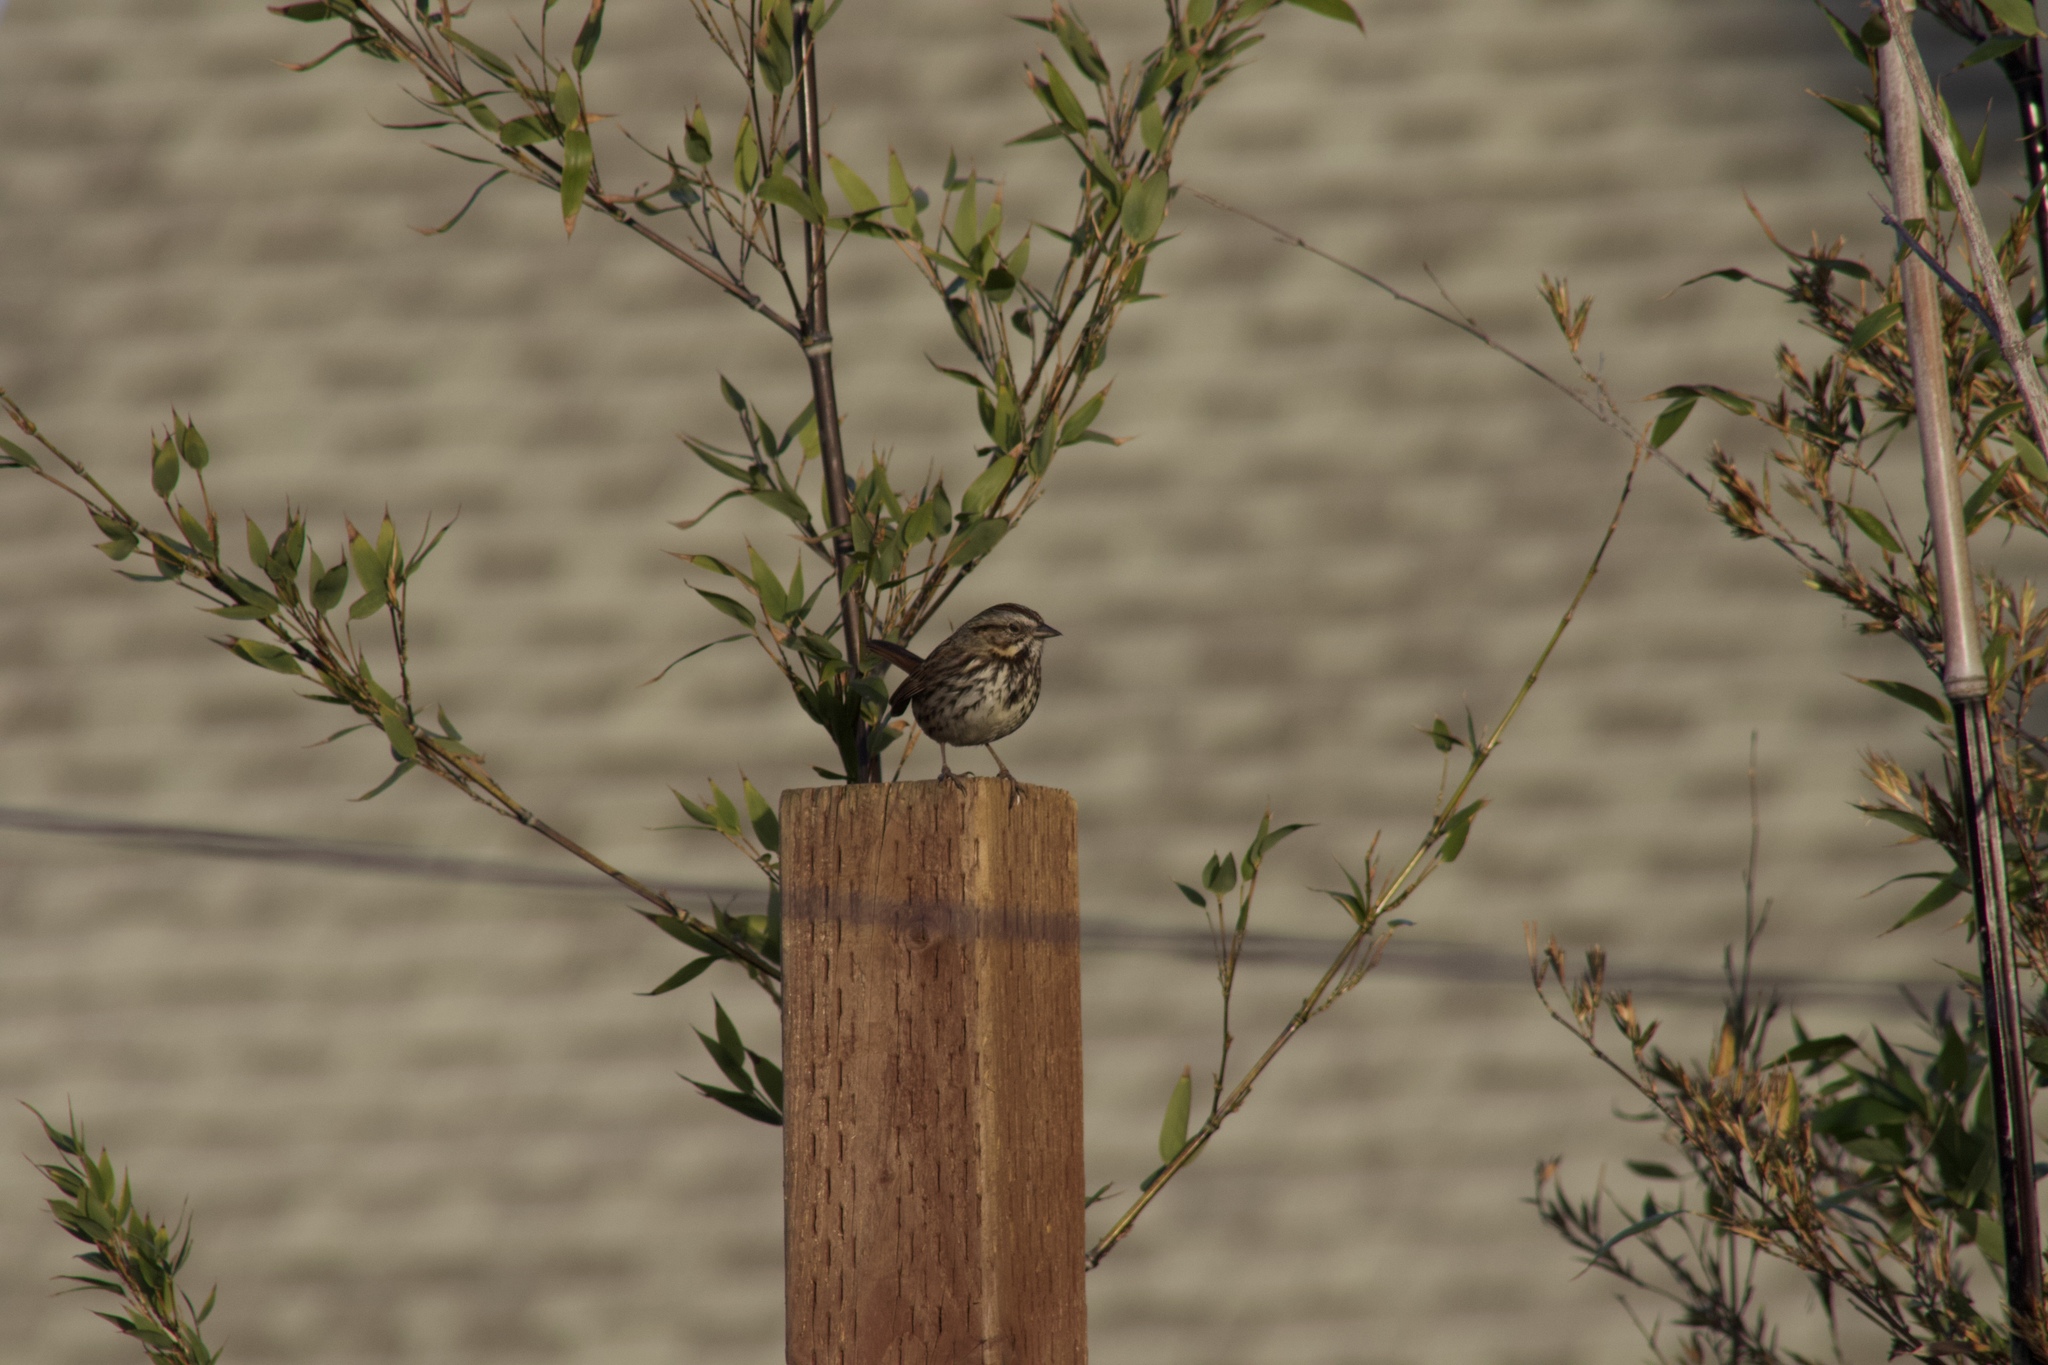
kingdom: Animalia
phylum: Chordata
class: Aves
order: Passeriformes
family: Passerellidae
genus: Melospiza
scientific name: Melospiza melodia
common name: Song sparrow
